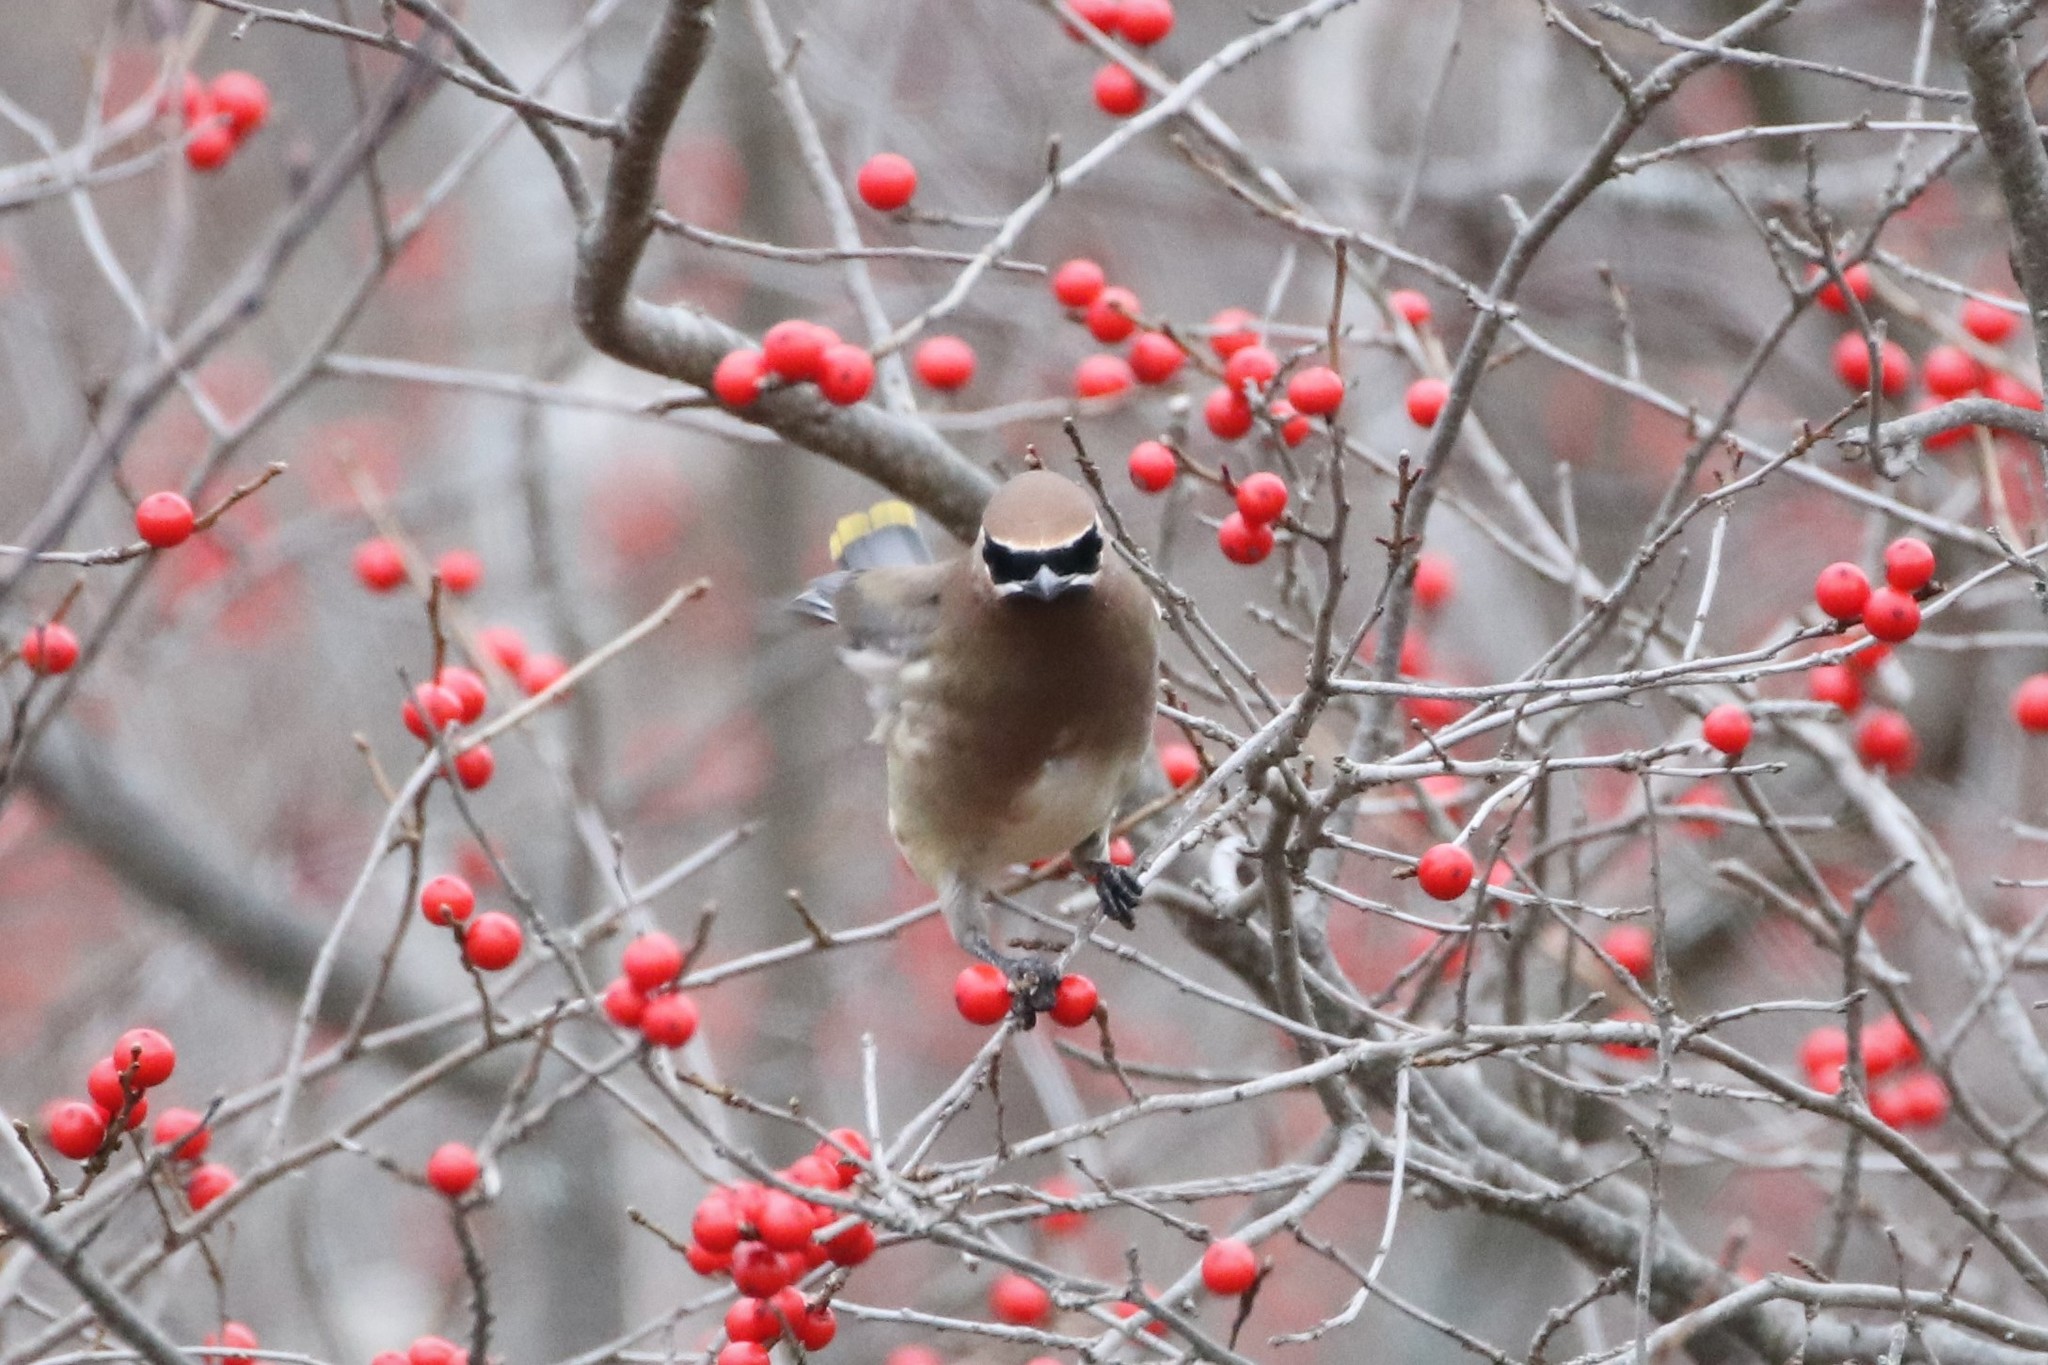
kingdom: Animalia
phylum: Chordata
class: Aves
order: Passeriformes
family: Bombycillidae
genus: Bombycilla
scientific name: Bombycilla cedrorum
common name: Cedar waxwing
